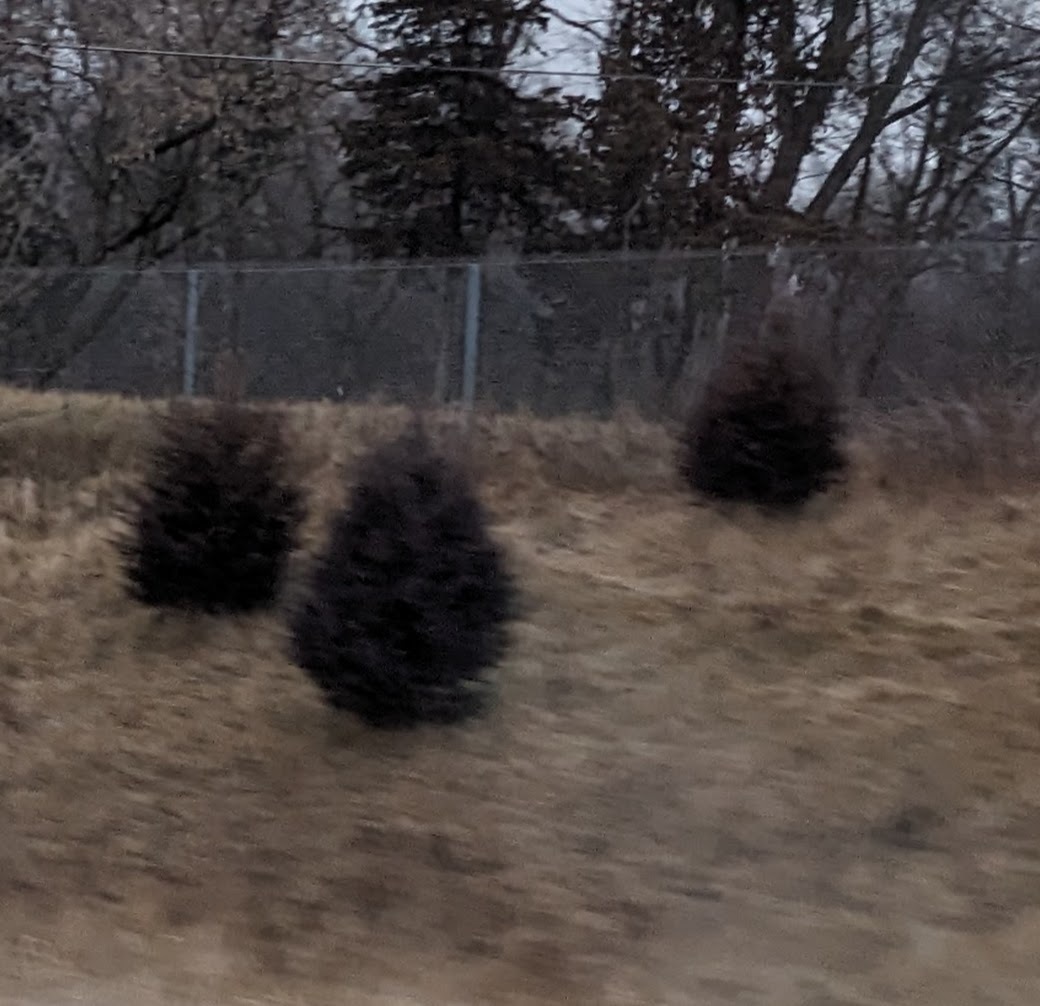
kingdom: Plantae
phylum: Tracheophyta
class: Pinopsida
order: Pinales
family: Cupressaceae
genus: Juniperus
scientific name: Juniperus virginiana
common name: Red juniper
